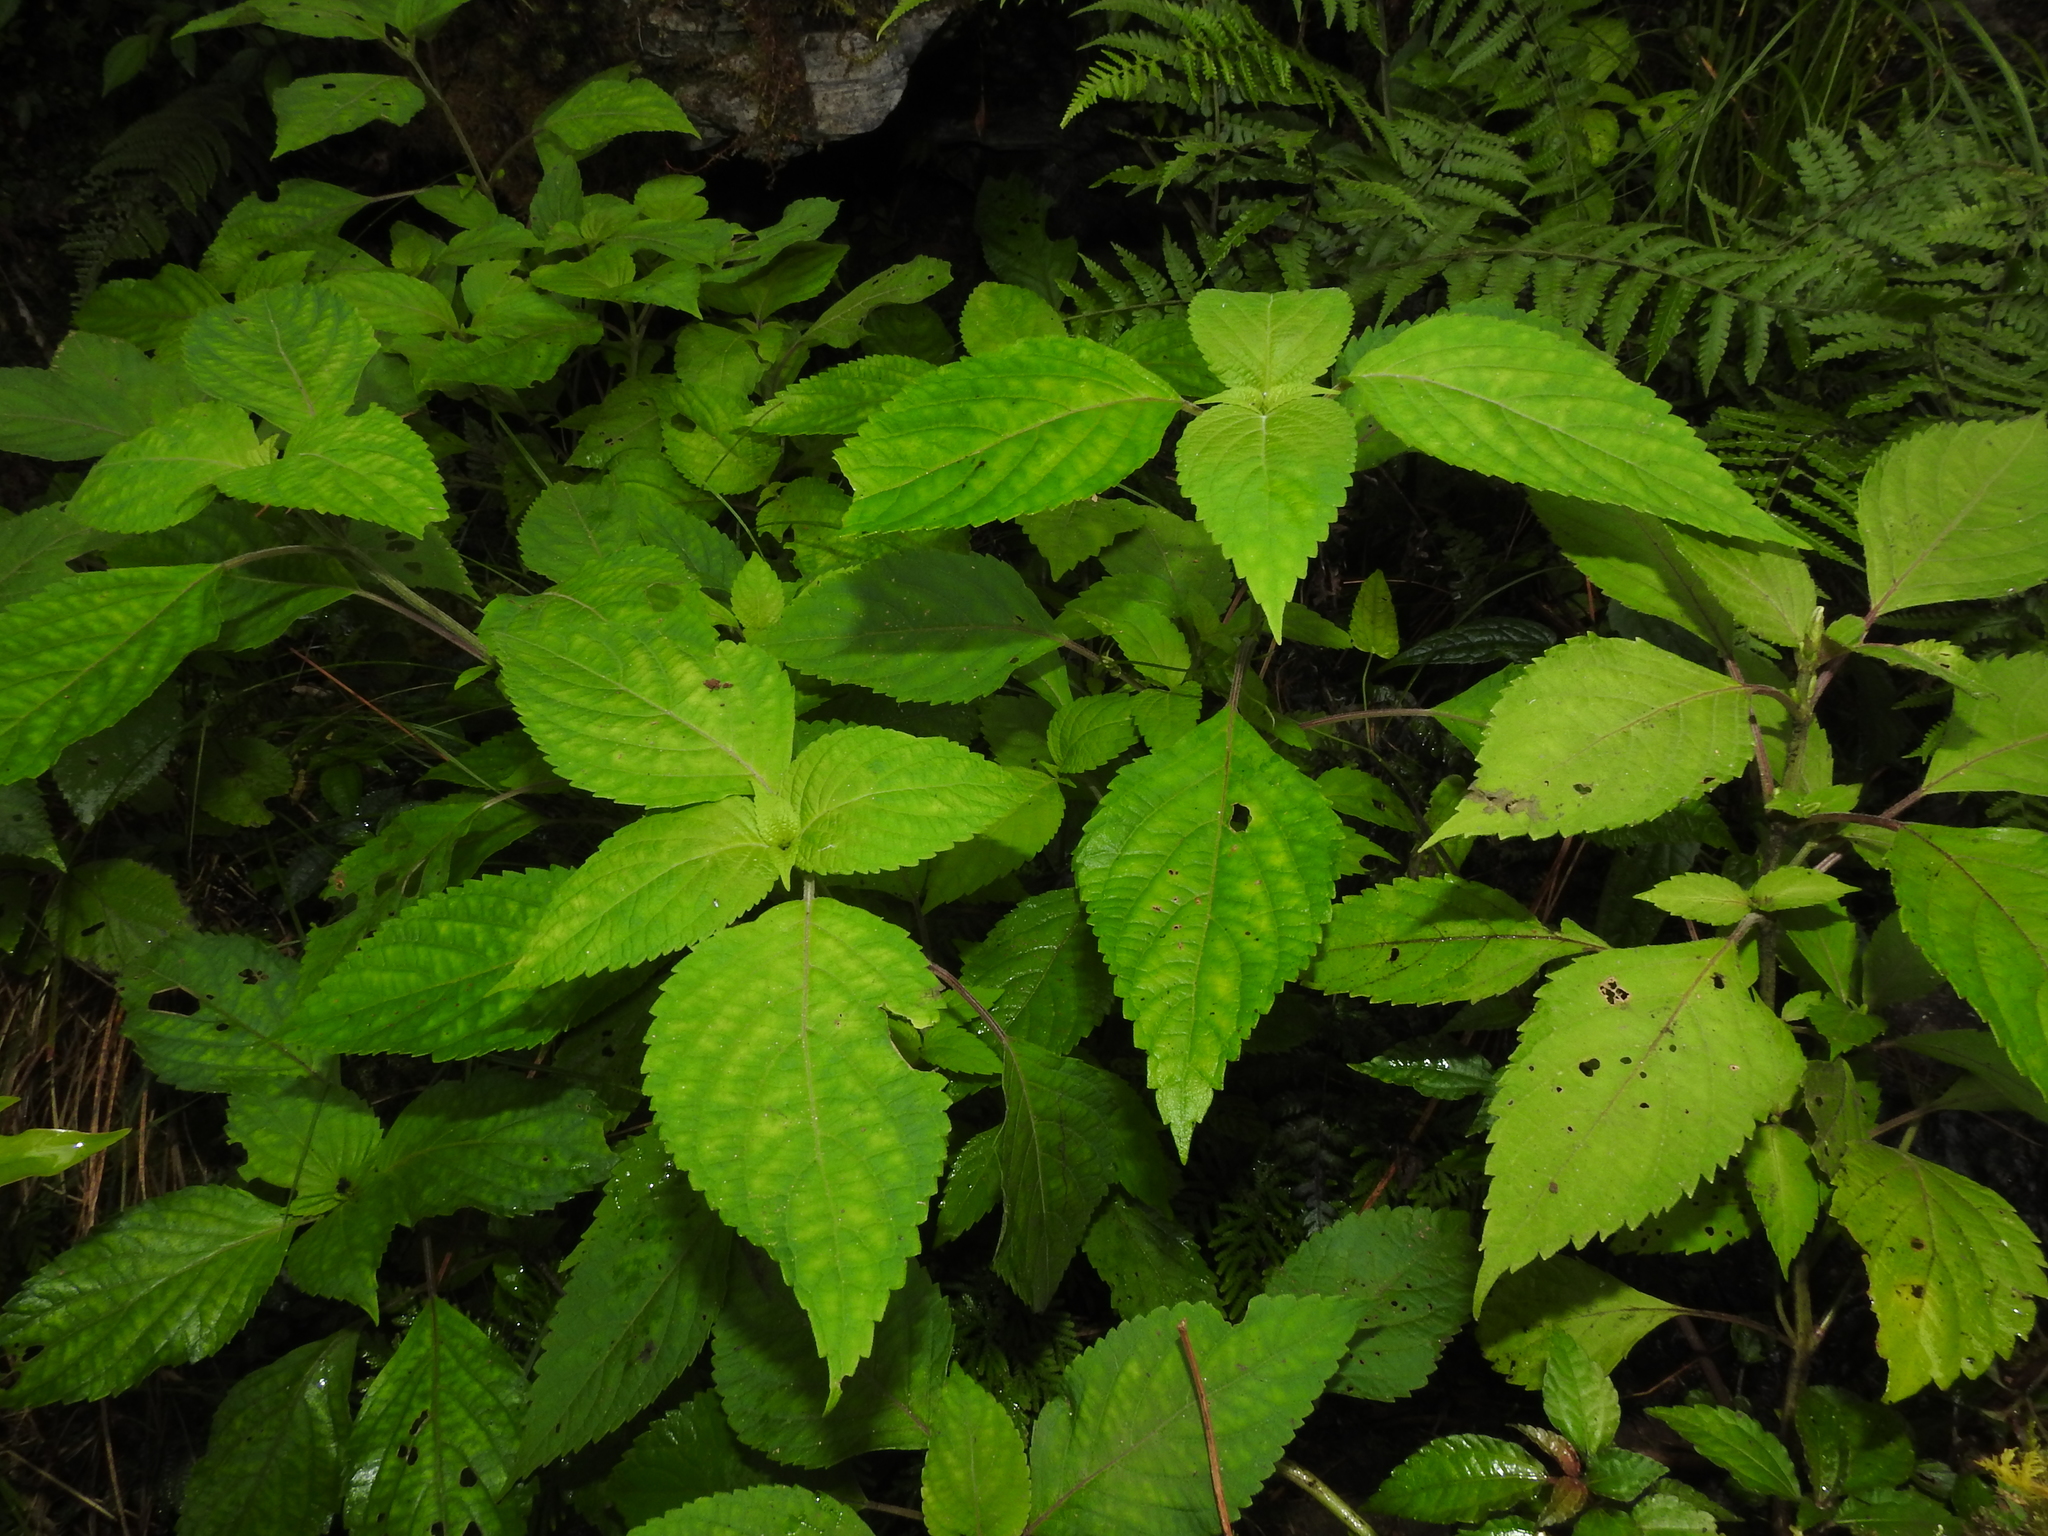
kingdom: Plantae
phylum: Tracheophyta
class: Magnoliopsida
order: Lamiales
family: Lamiaceae
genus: Collinsonia
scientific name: Collinsonia macrobracteata
